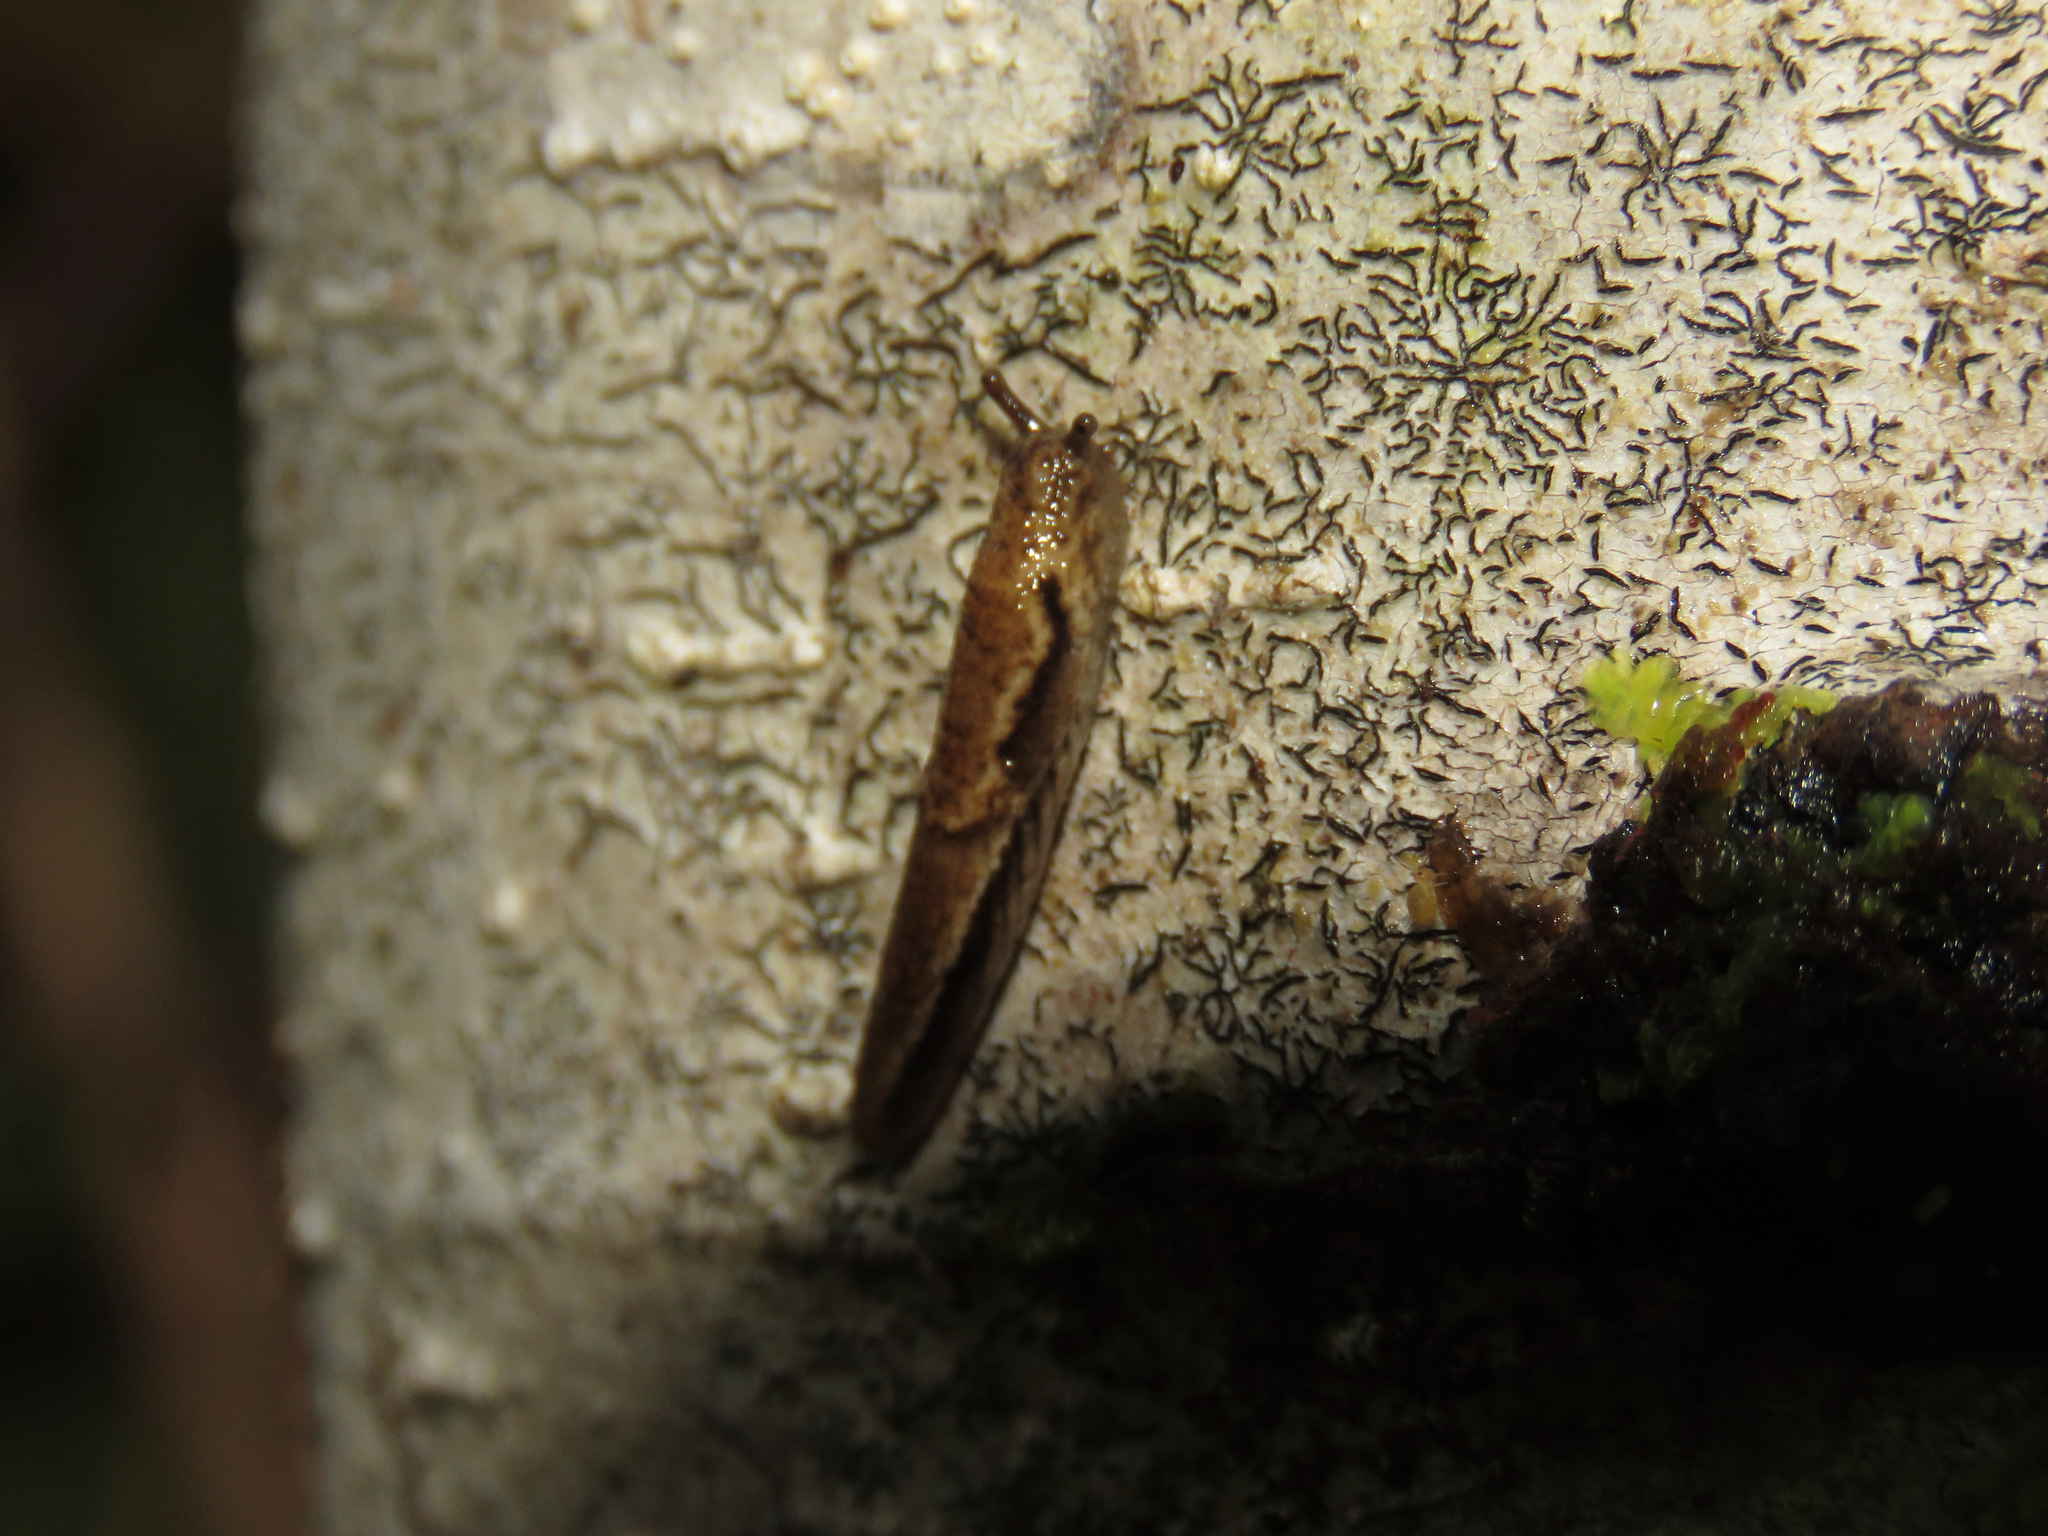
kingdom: Animalia
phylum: Mollusca
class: Gastropoda
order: Stylommatophora
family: Ariolimacidae
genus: Prophysaon
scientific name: Prophysaon andersonii
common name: Reticulate taildropper
